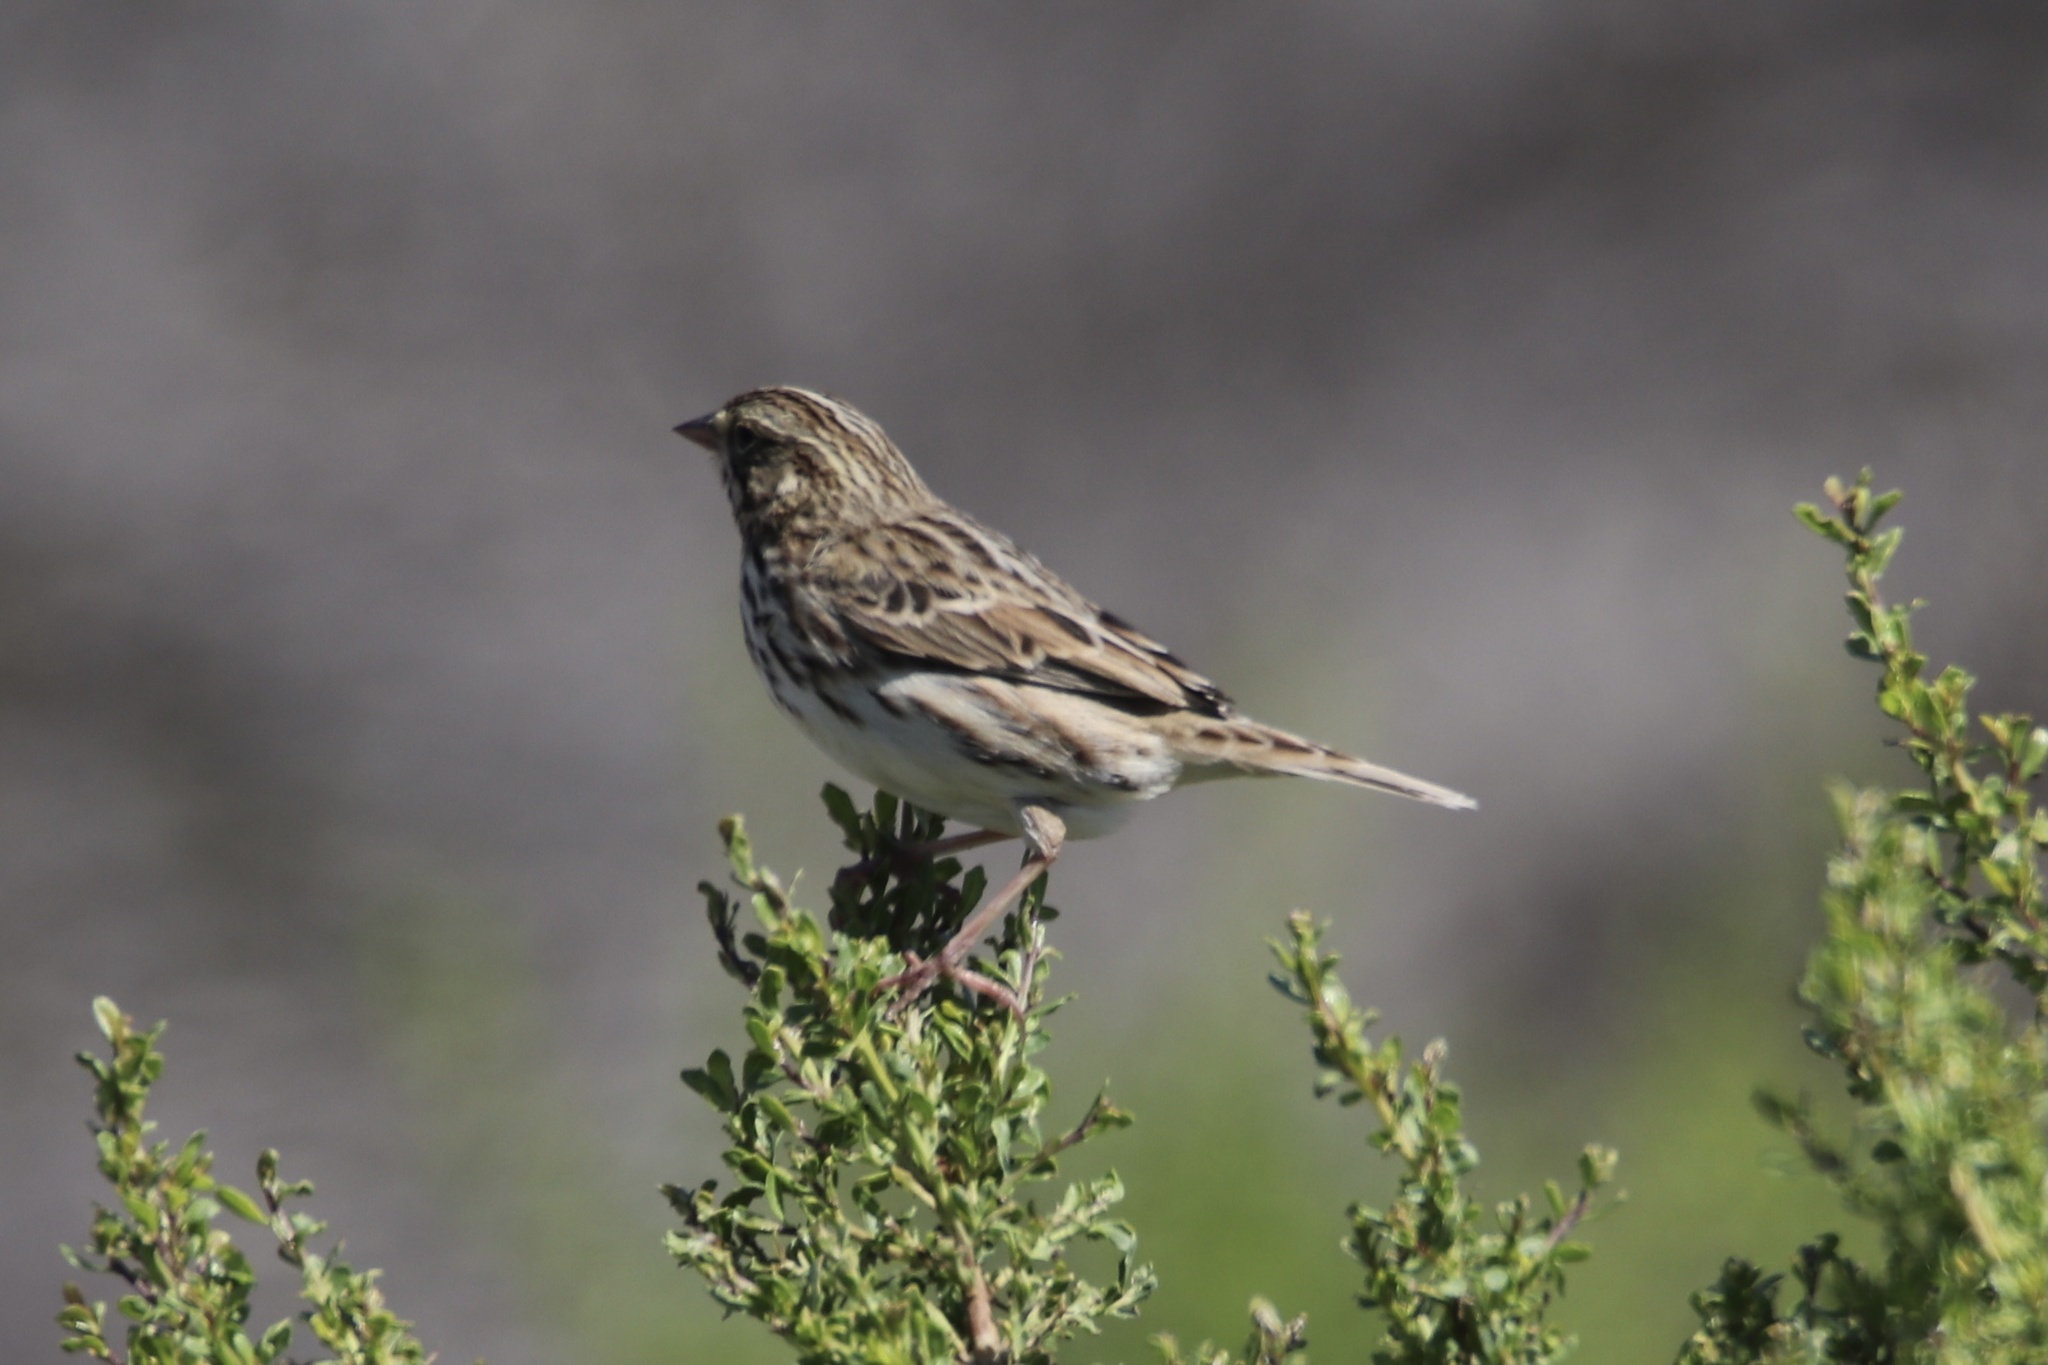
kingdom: Animalia
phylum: Chordata
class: Aves
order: Passeriformes
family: Passerellidae
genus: Passerculus
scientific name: Passerculus sandwichensis
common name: Savannah sparrow
